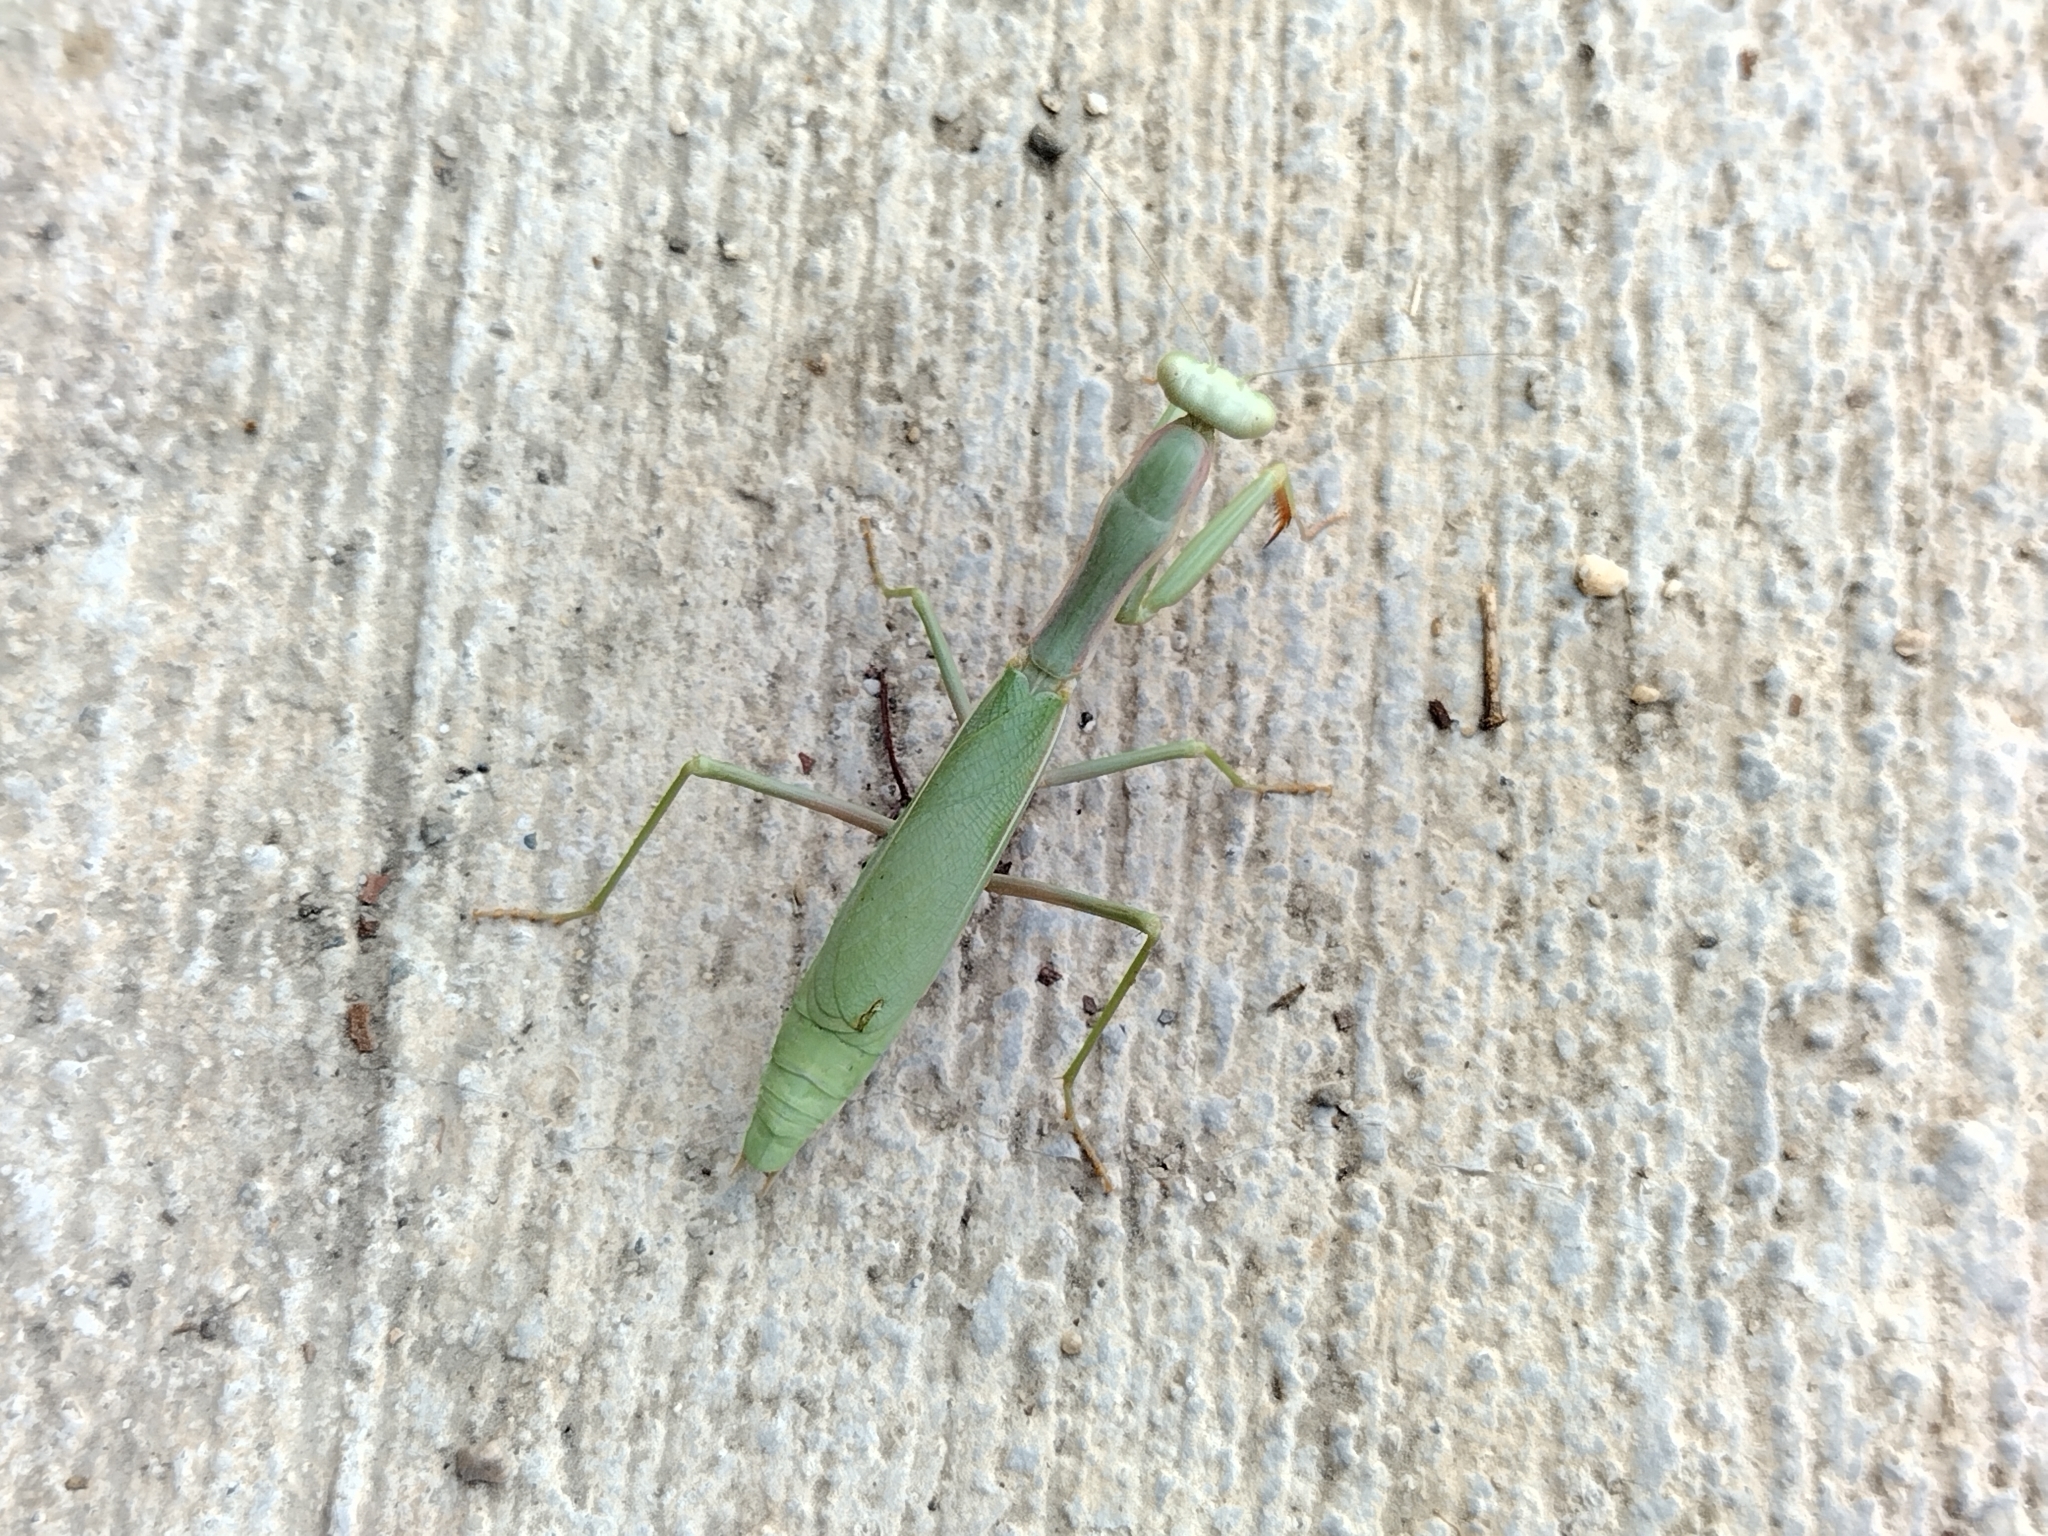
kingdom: Animalia
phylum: Arthropoda
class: Insecta
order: Mantodea
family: Eremiaphilidae
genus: Iris
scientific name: Iris oratoria
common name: Mediterranean mantis
